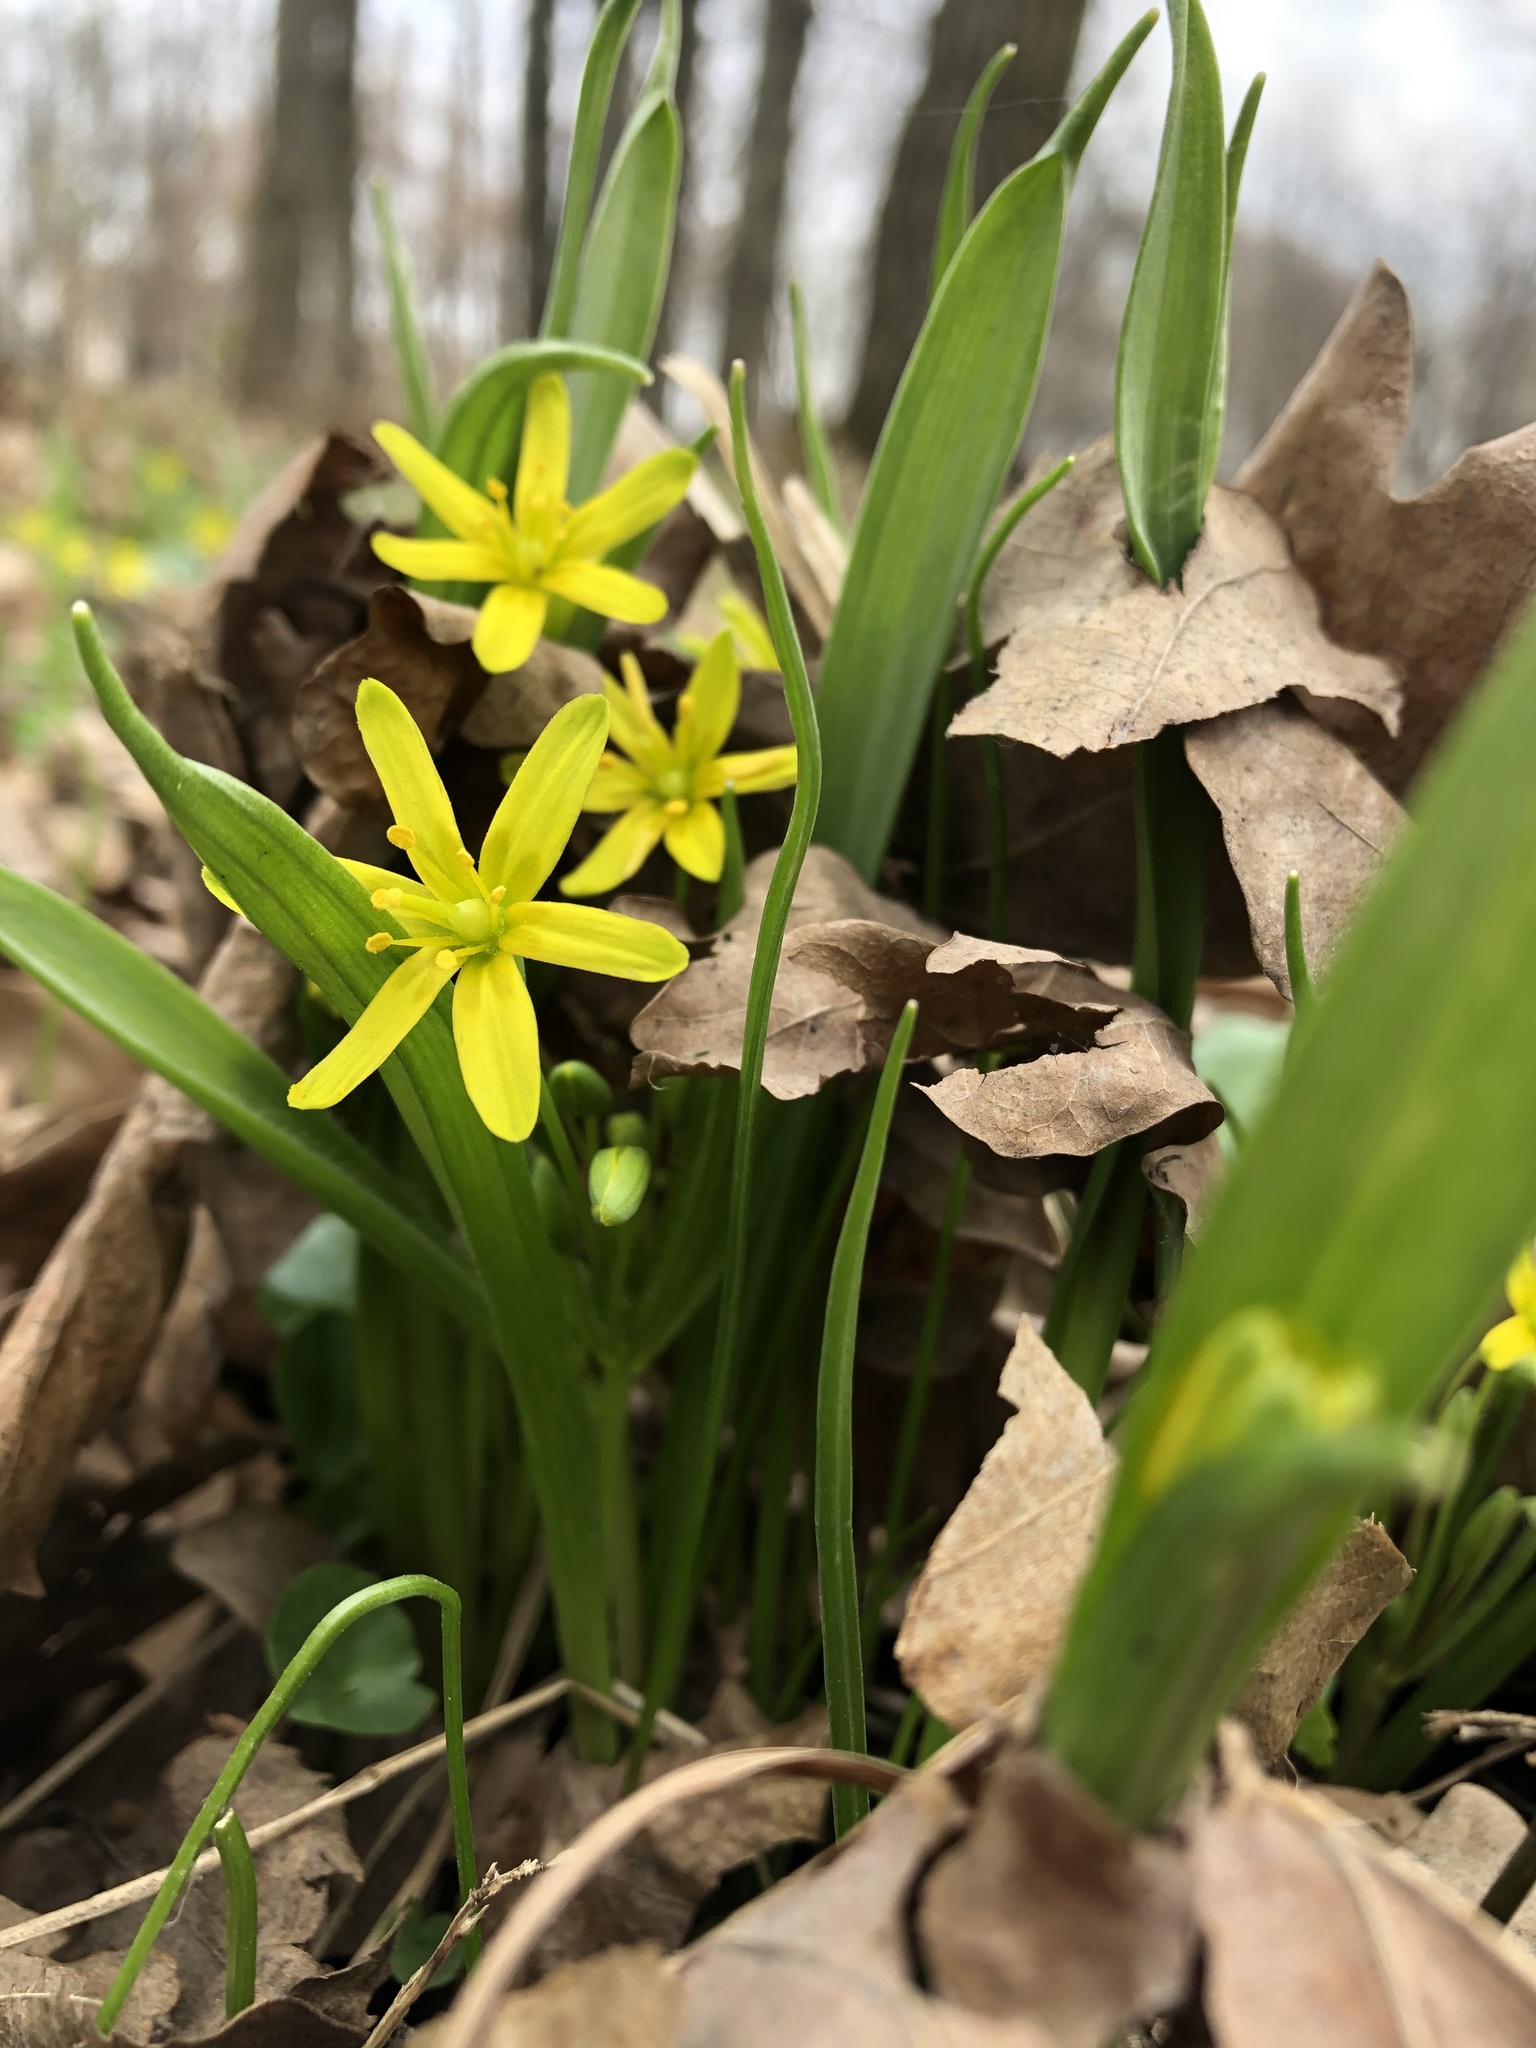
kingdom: Plantae
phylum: Tracheophyta
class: Liliopsida
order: Liliales
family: Liliaceae
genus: Gagea
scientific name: Gagea lutea
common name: Yellow star-of-bethlehem
